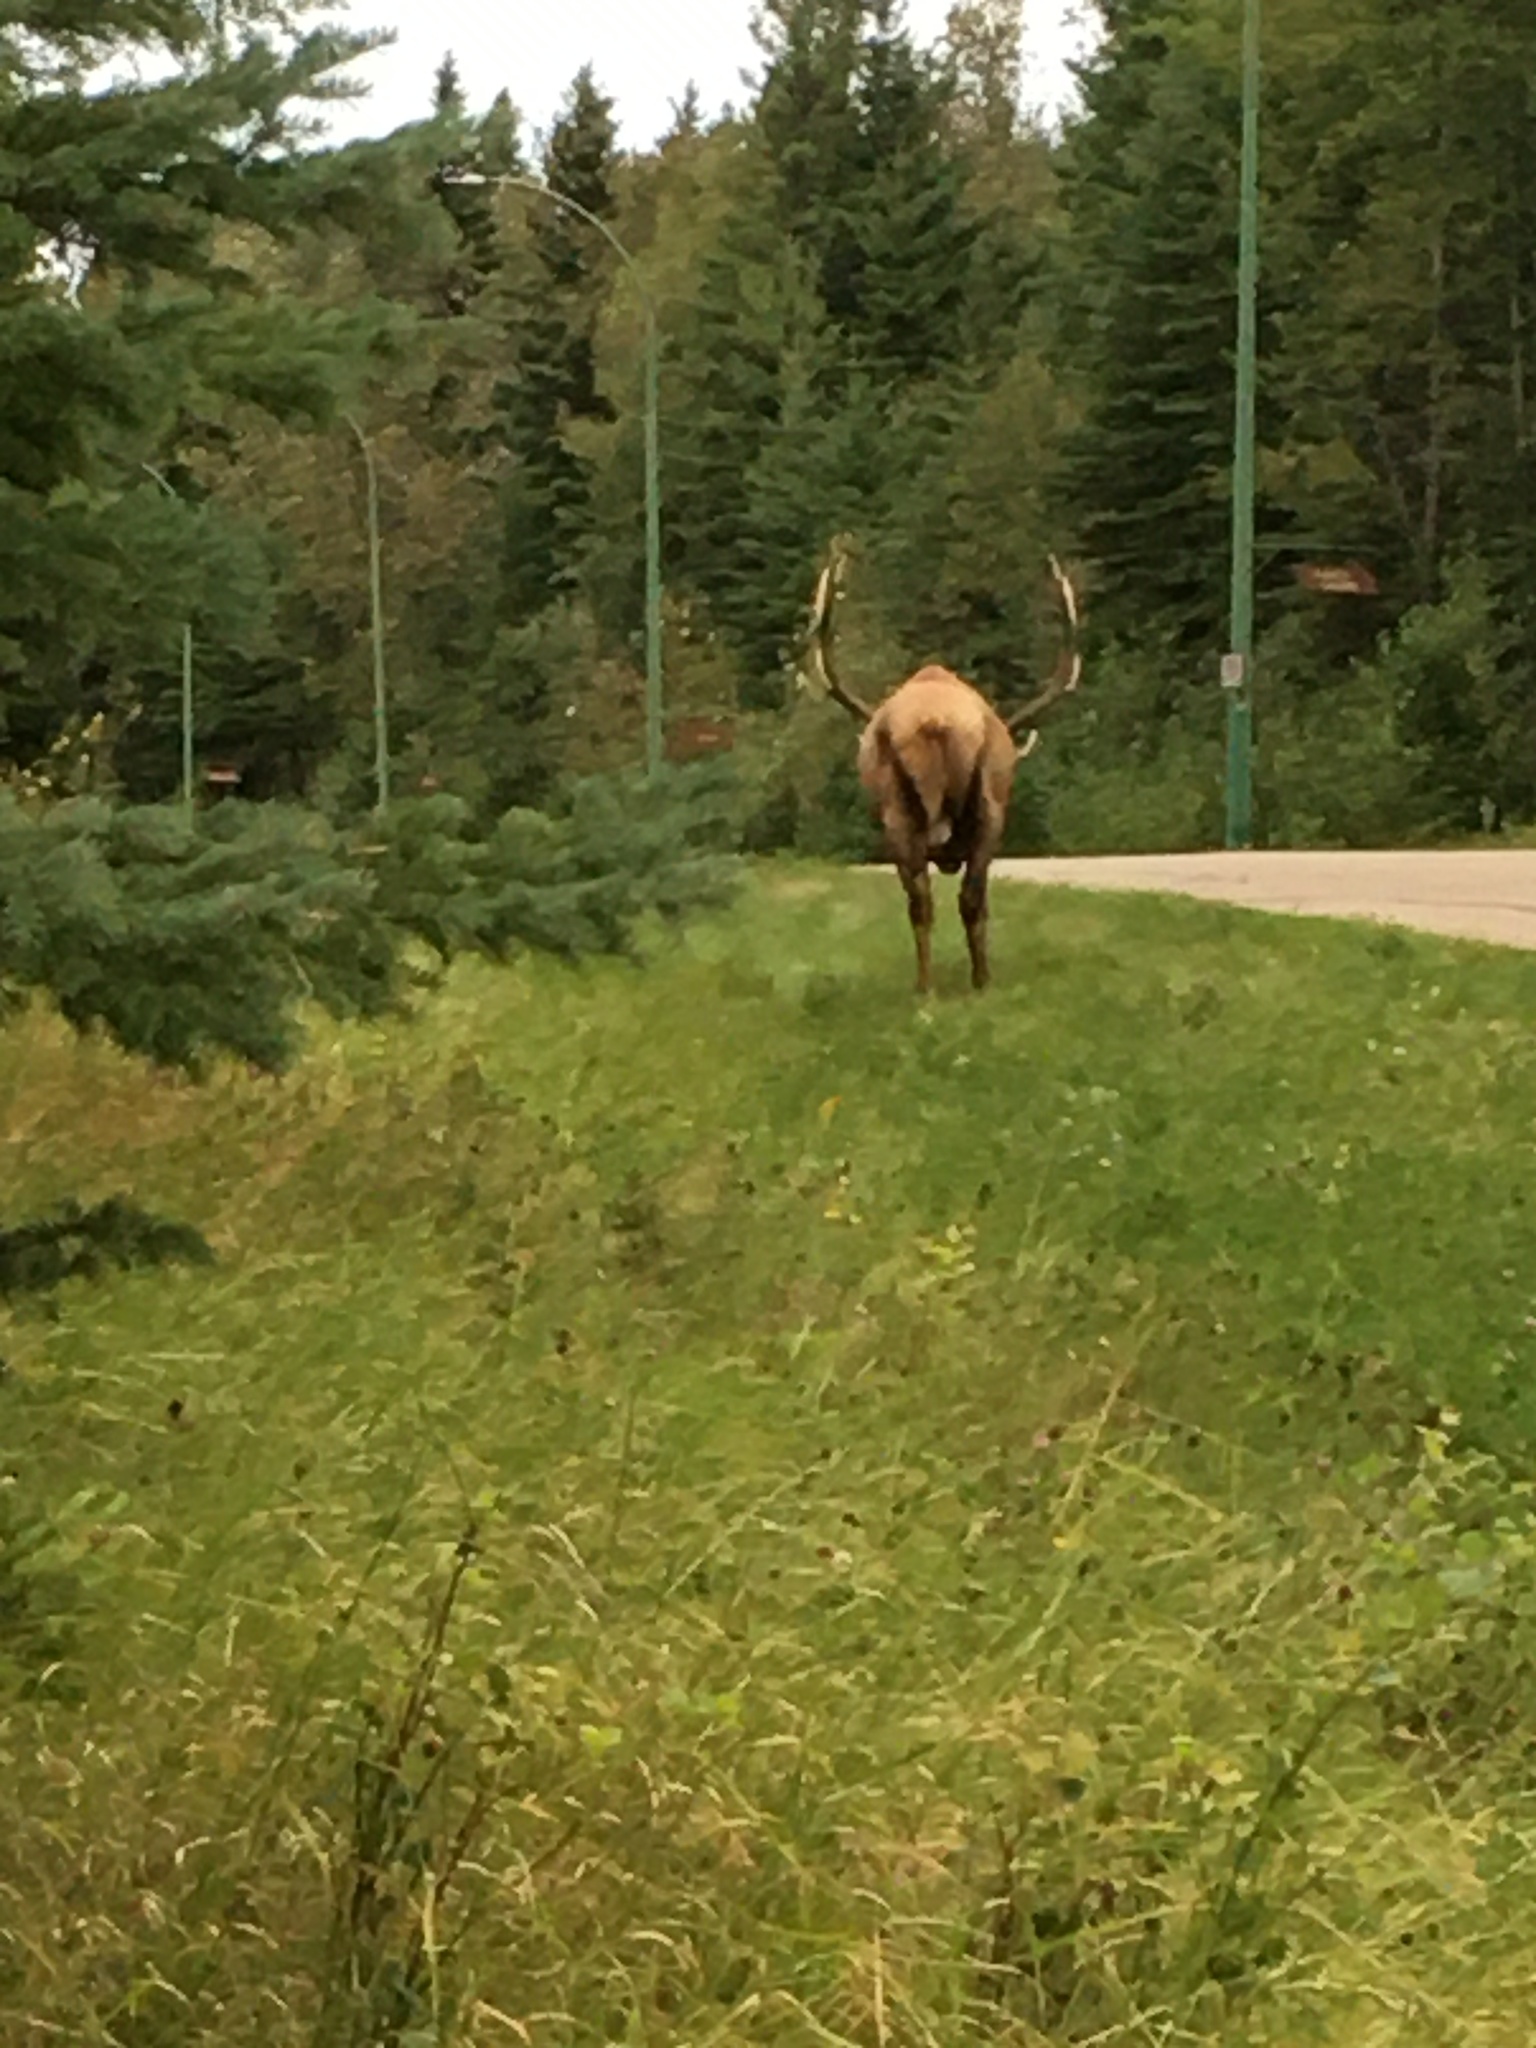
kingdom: Animalia
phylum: Chordata
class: Mammalia
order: Artiodactyla
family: Cervidae
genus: Cervus
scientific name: Cervus elaphus
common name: Red deer
